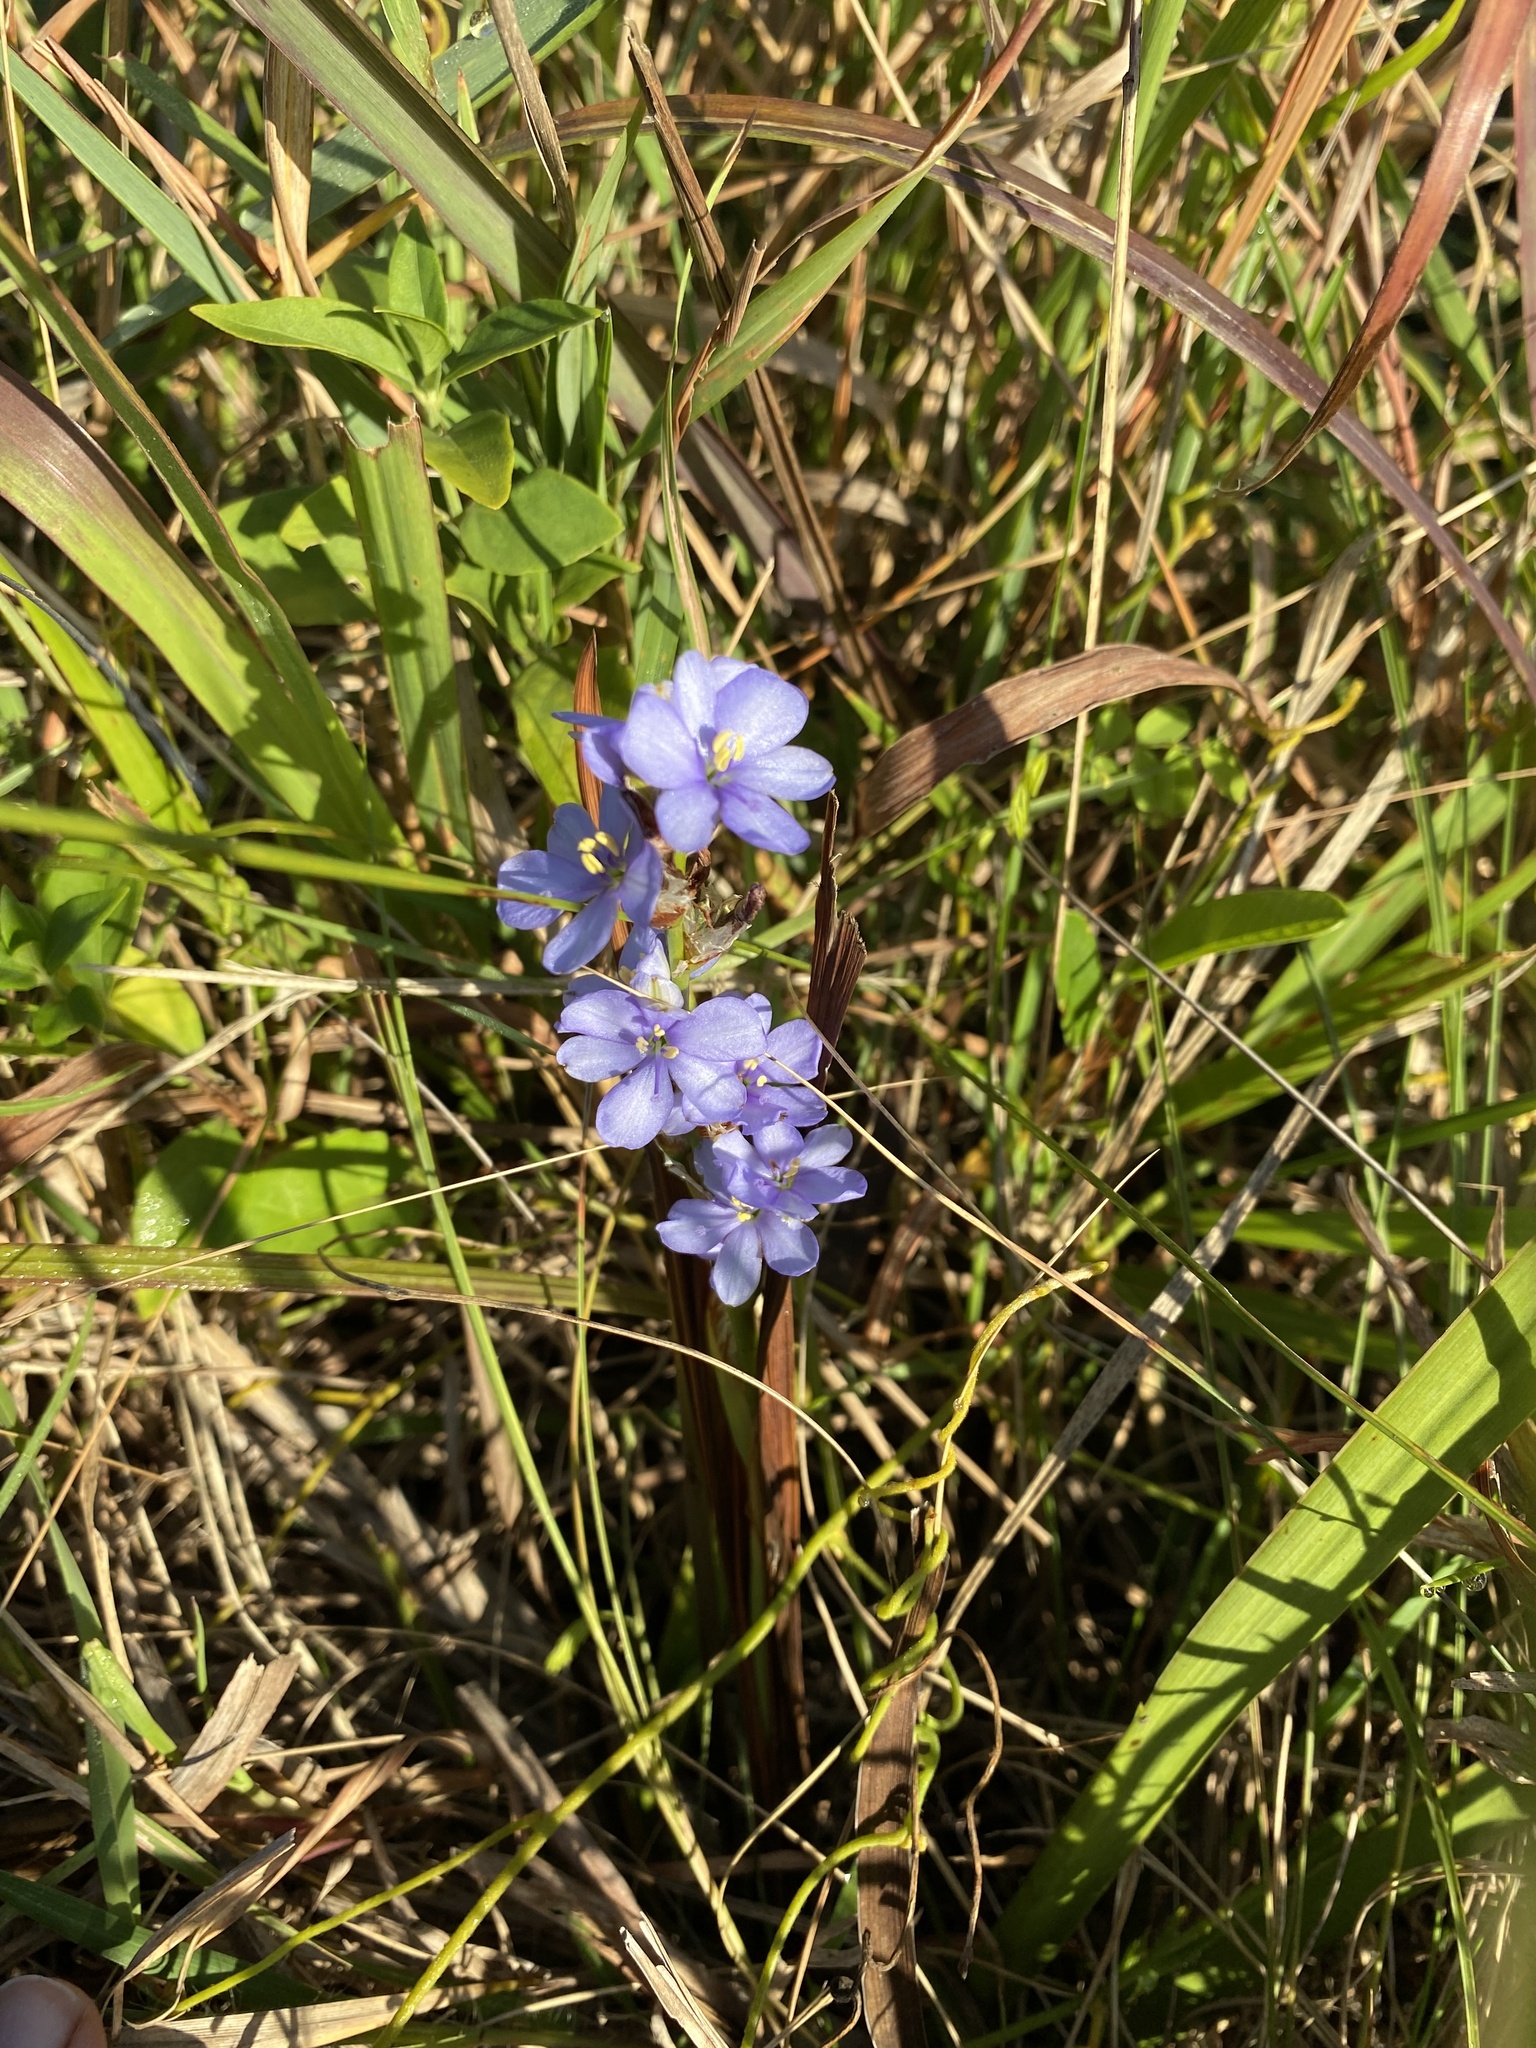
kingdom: Plantae
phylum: Tracheophyta
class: Liliopsida
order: Asparagales
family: Iridaceae
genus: Aristea
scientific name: Aristea ecklonii
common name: Blue corn-lily
